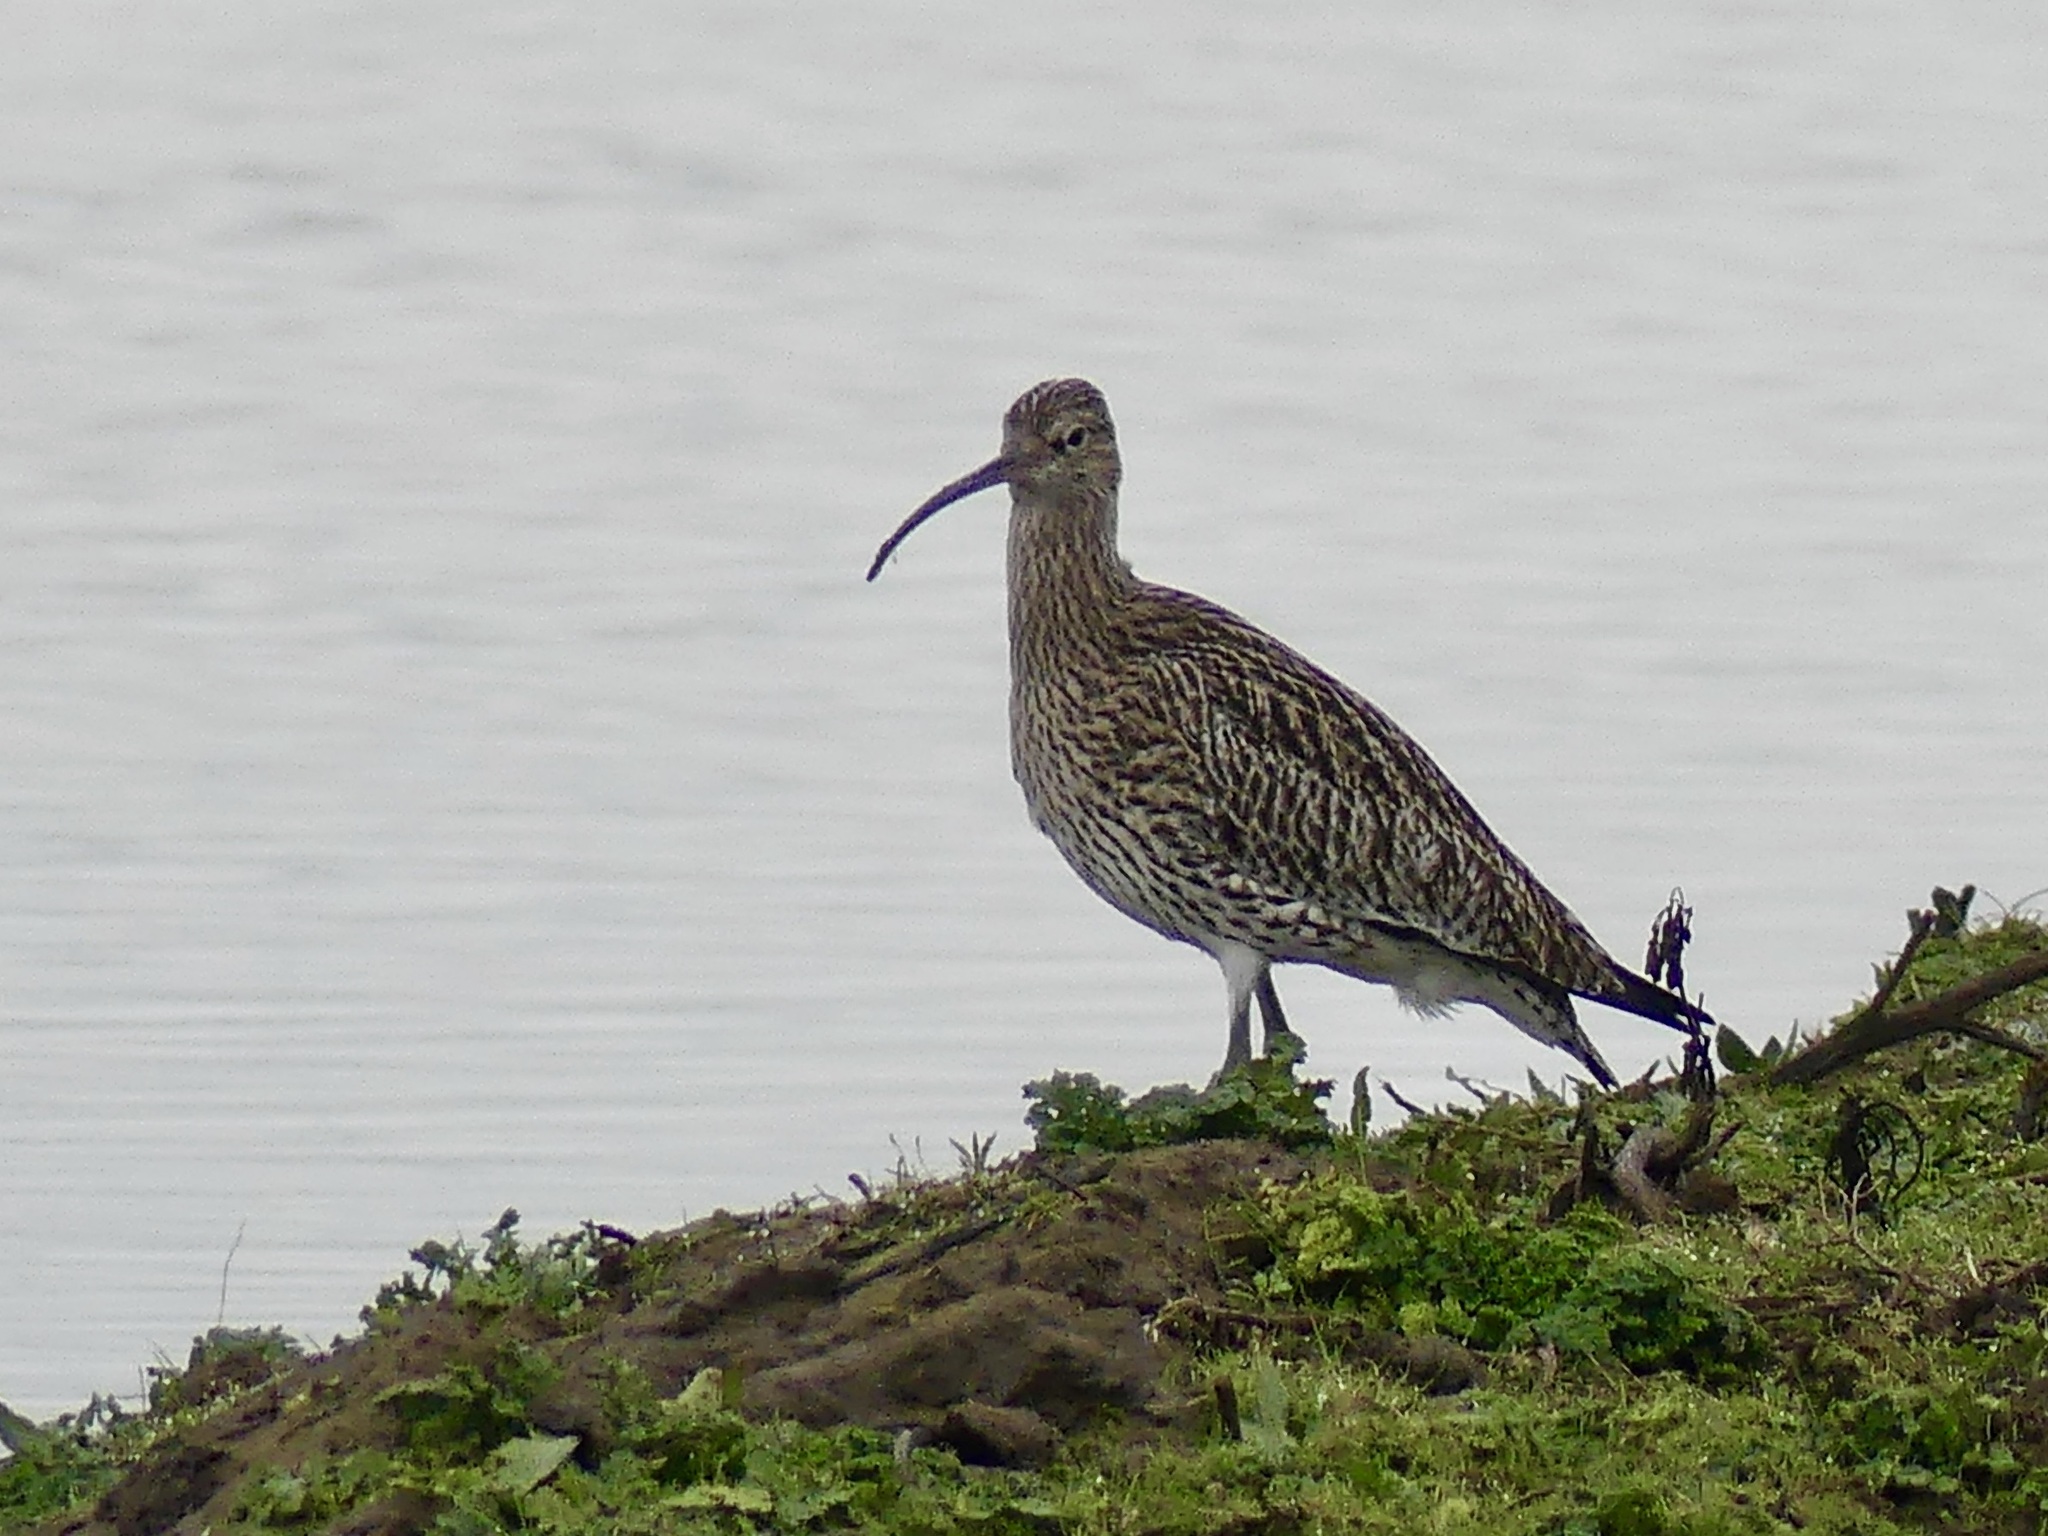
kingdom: Animalia
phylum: Chordata
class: Aves
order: Charadriiformes
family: Scolopacidae
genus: Numenius
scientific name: Numenius arquata
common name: Eurasian curlew
